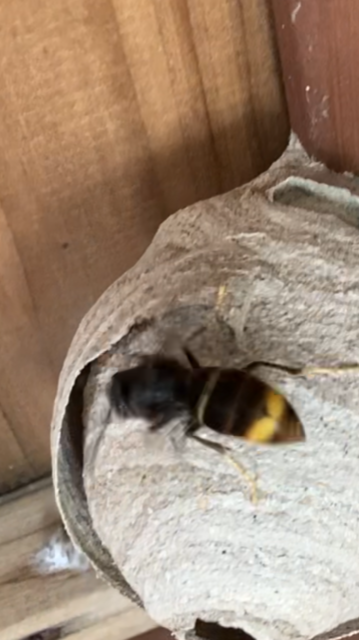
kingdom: Animalia
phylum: Arthropoda
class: Insecta
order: Hymenoptera
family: Vespidae
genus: Vespa
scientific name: Vespa velutina
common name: Asian hornet
